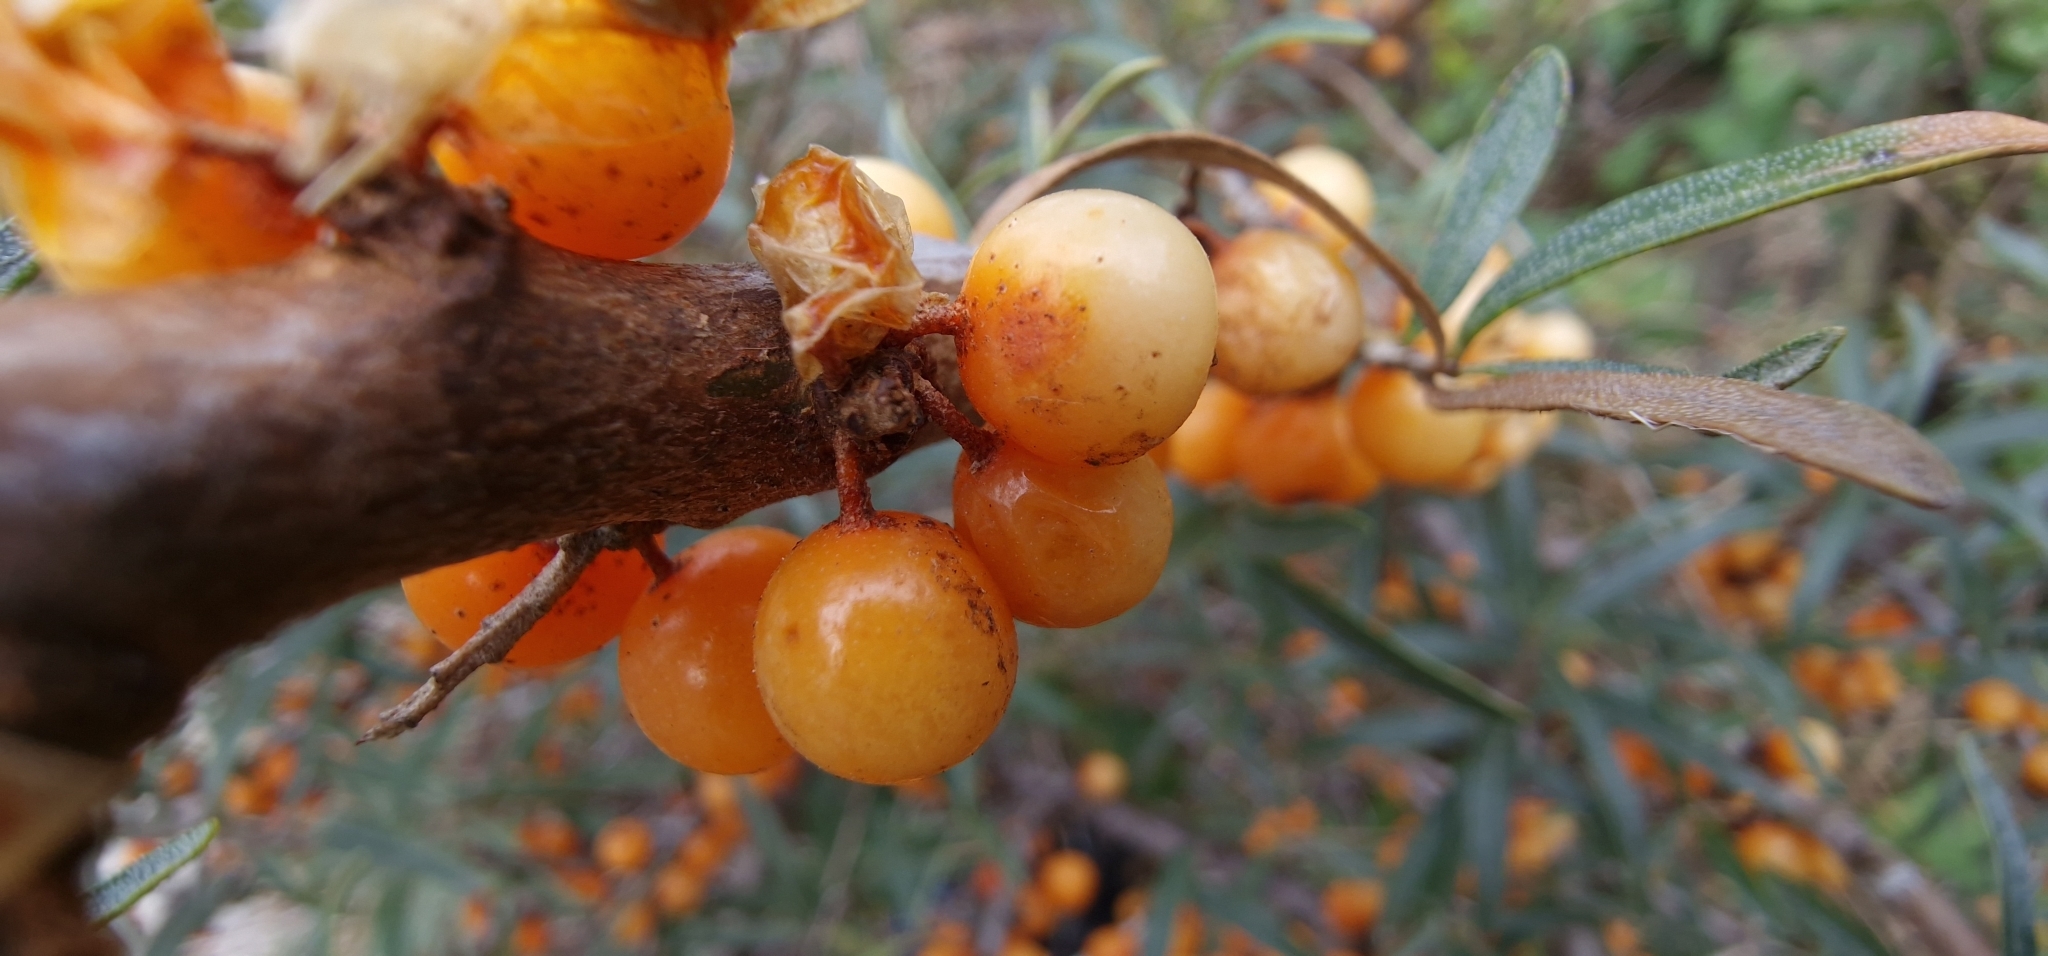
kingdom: Plantae
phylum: Tracheophyta
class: Magnoliopsida
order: Rosales
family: Elaeagnaceae
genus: Hippophae
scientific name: Hippophae rhamnoides
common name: Sea-buckthorn
